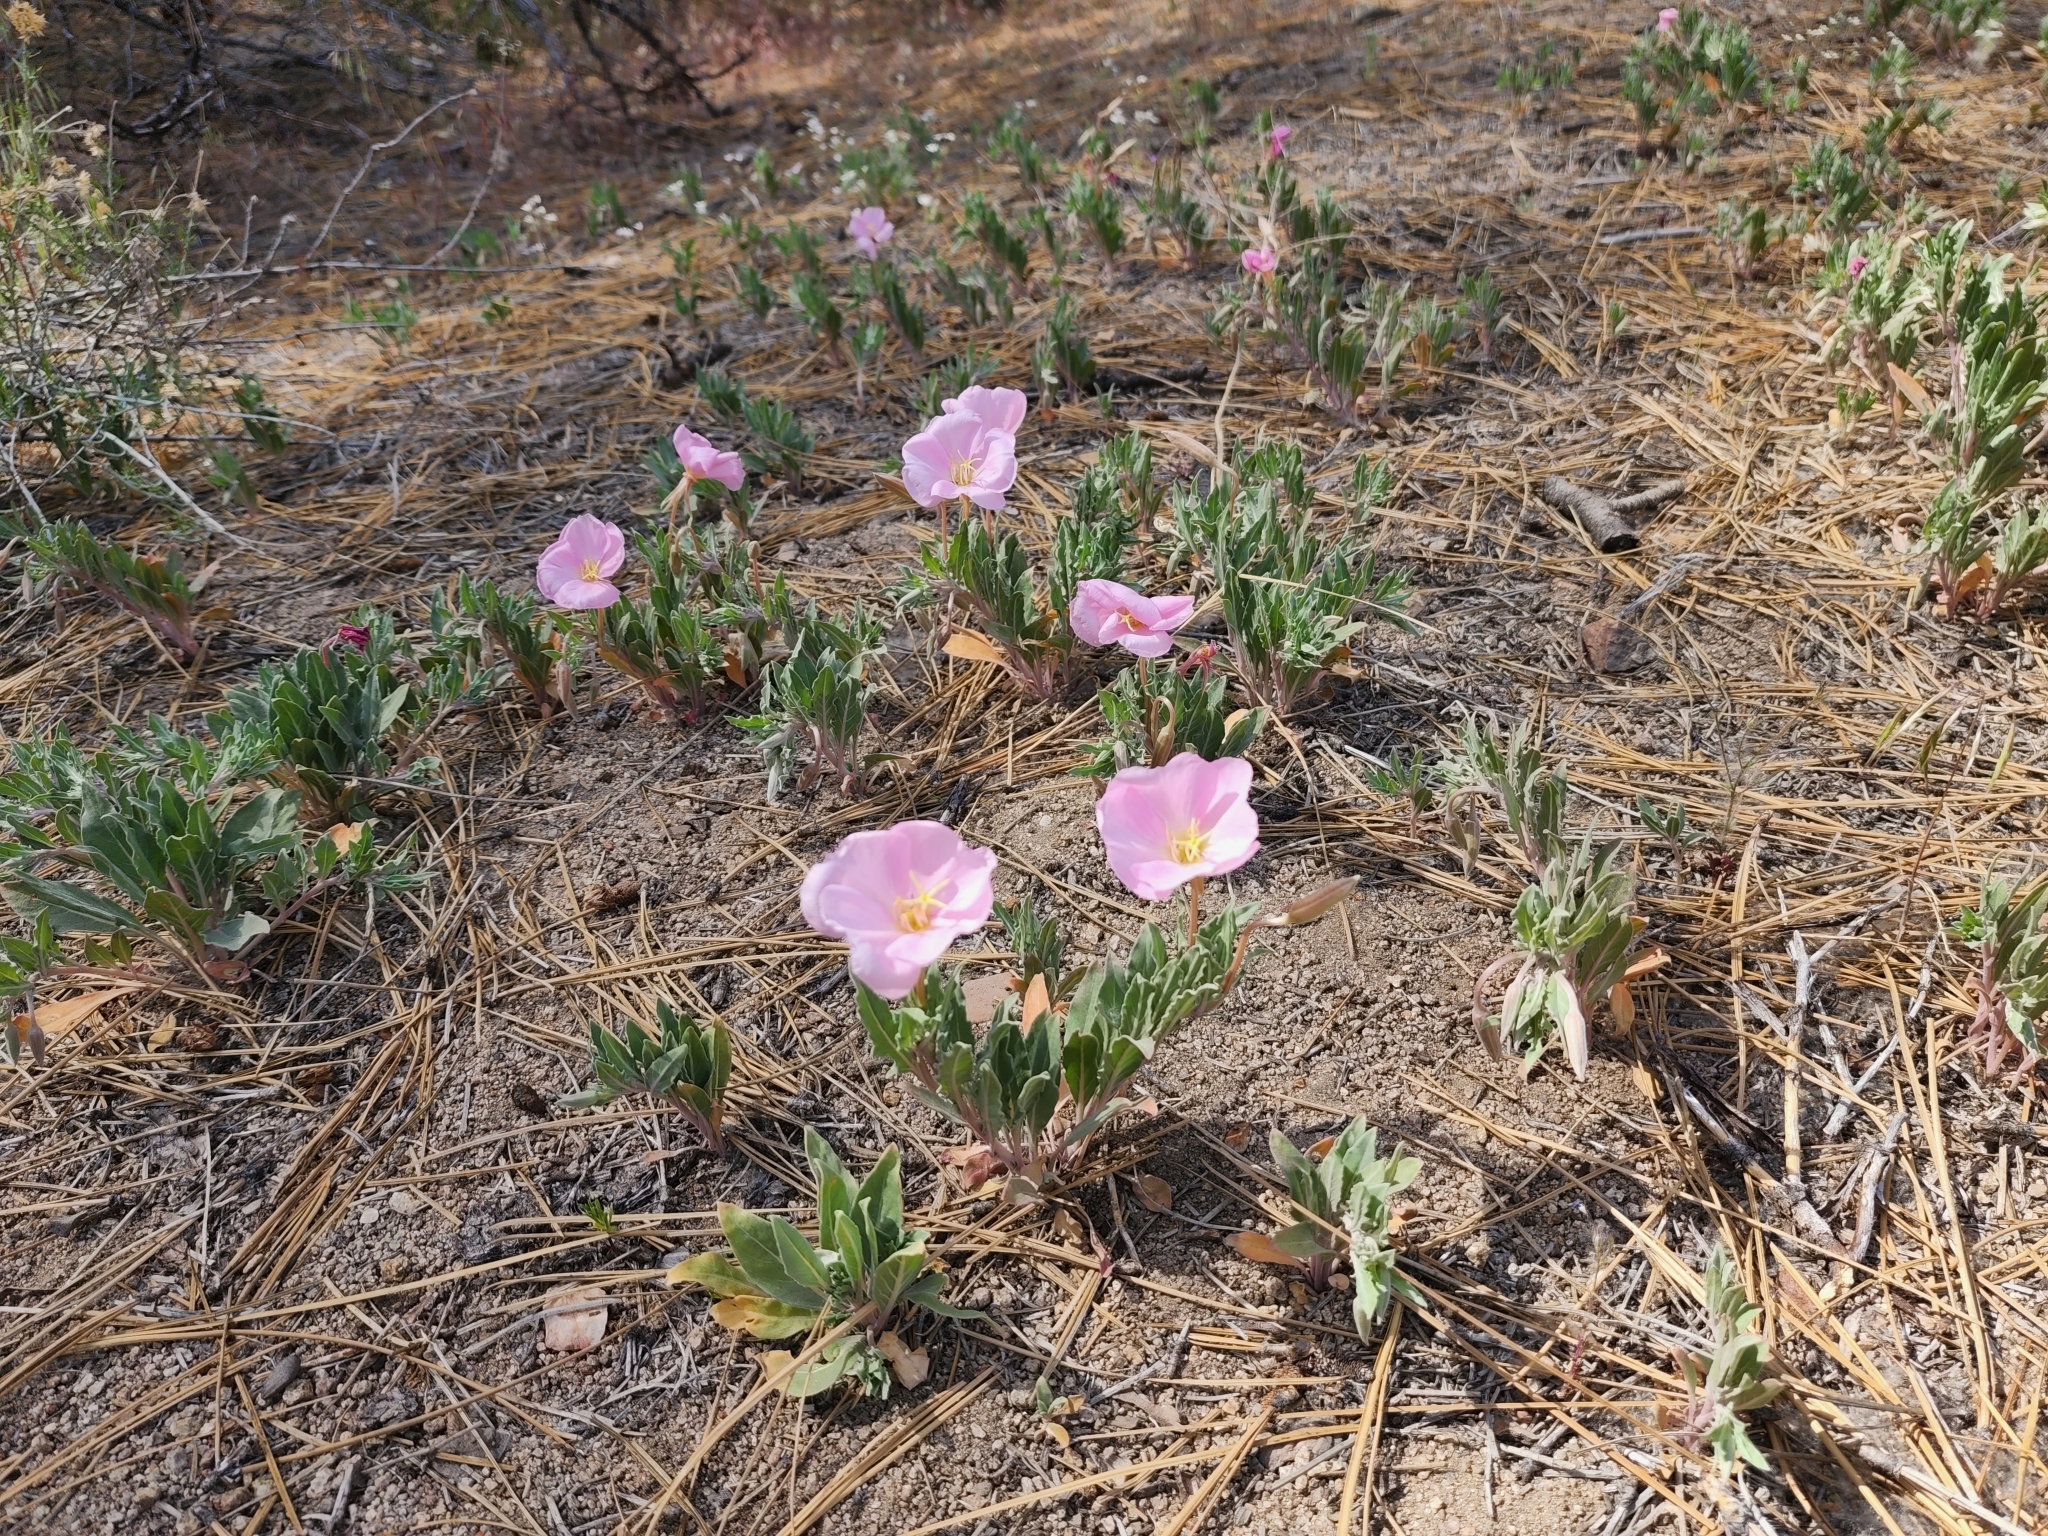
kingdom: Plantae
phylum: Tracheophyta
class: Magnoliopsida
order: Myrtales
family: Onagraceae
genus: Oenothera
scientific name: Oenothera californica
